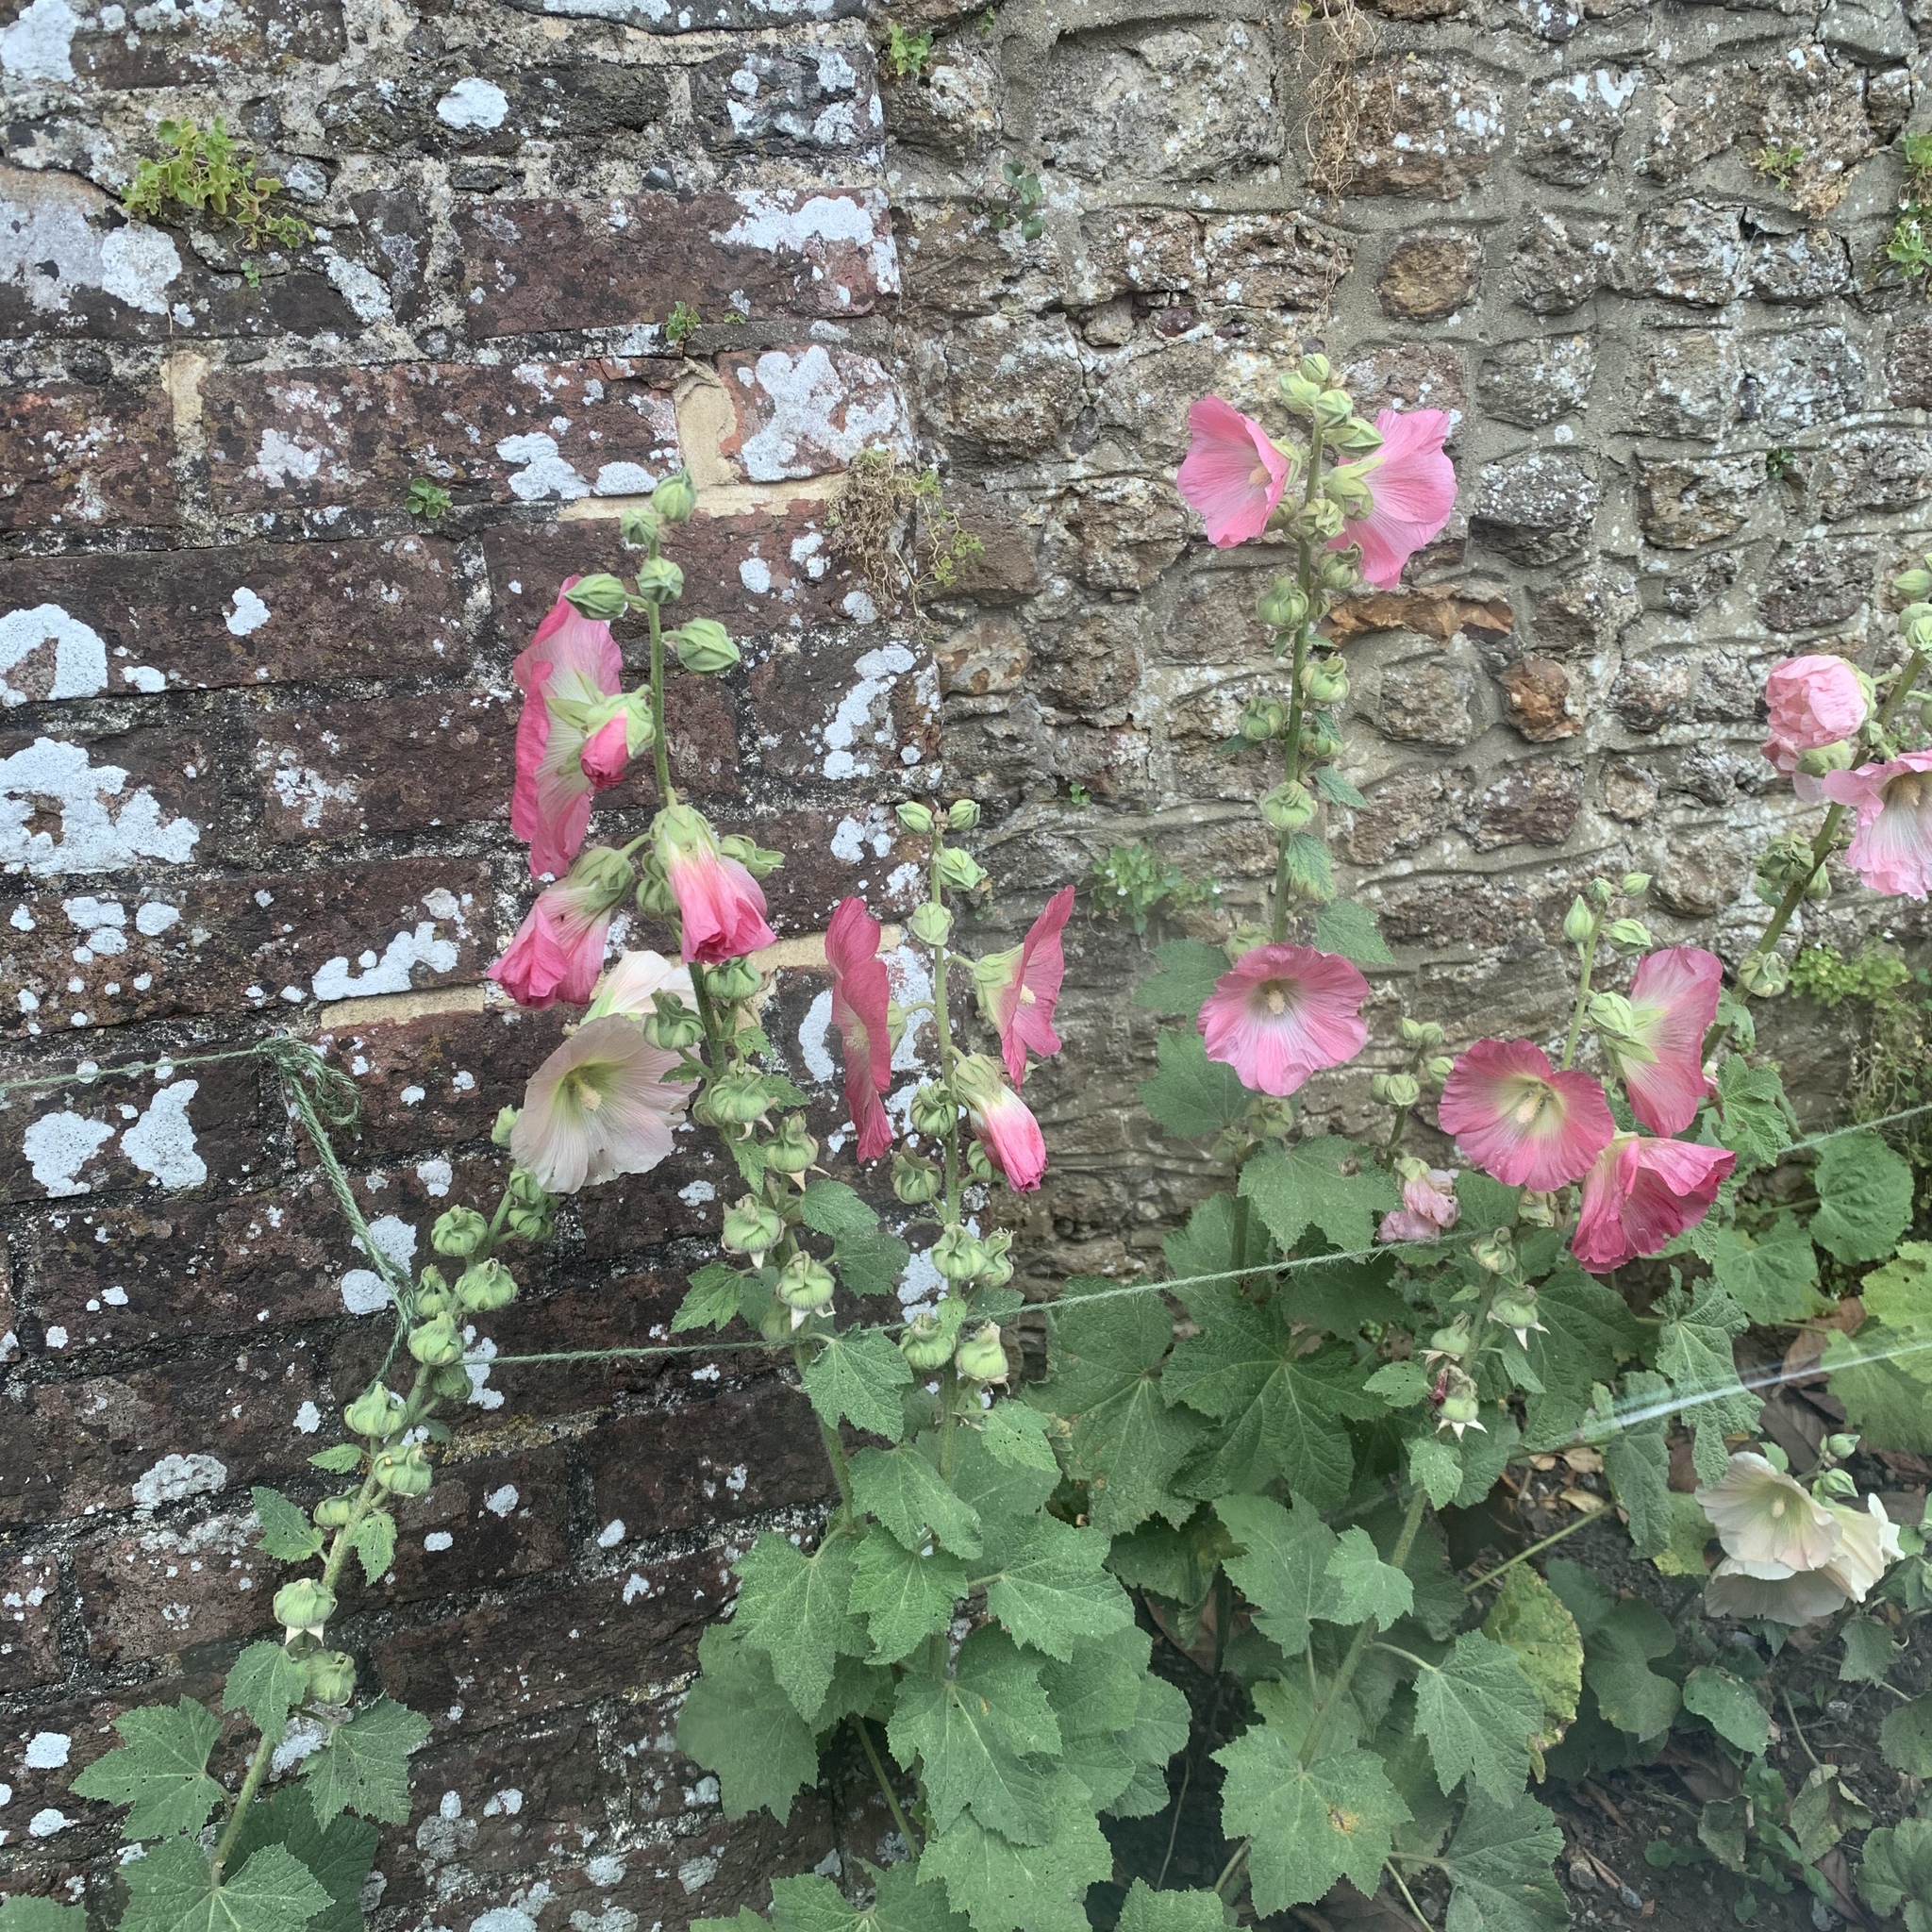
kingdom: Plantae
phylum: Tracheophyta
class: Magnoliopsida
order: Malvales
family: Malvaceae
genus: Alcea
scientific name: Alcea rosea
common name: Hollyhock
